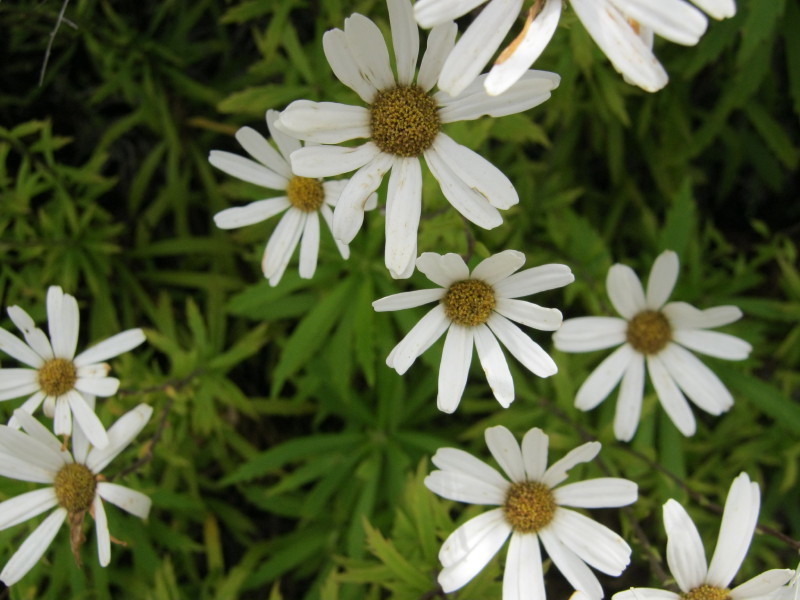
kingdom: Plantae
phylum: Tracheophyta
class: Magnoliopsida
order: Asterales
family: Asteraceae
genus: Osmitopsis
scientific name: Osmitopsis osmitoides
